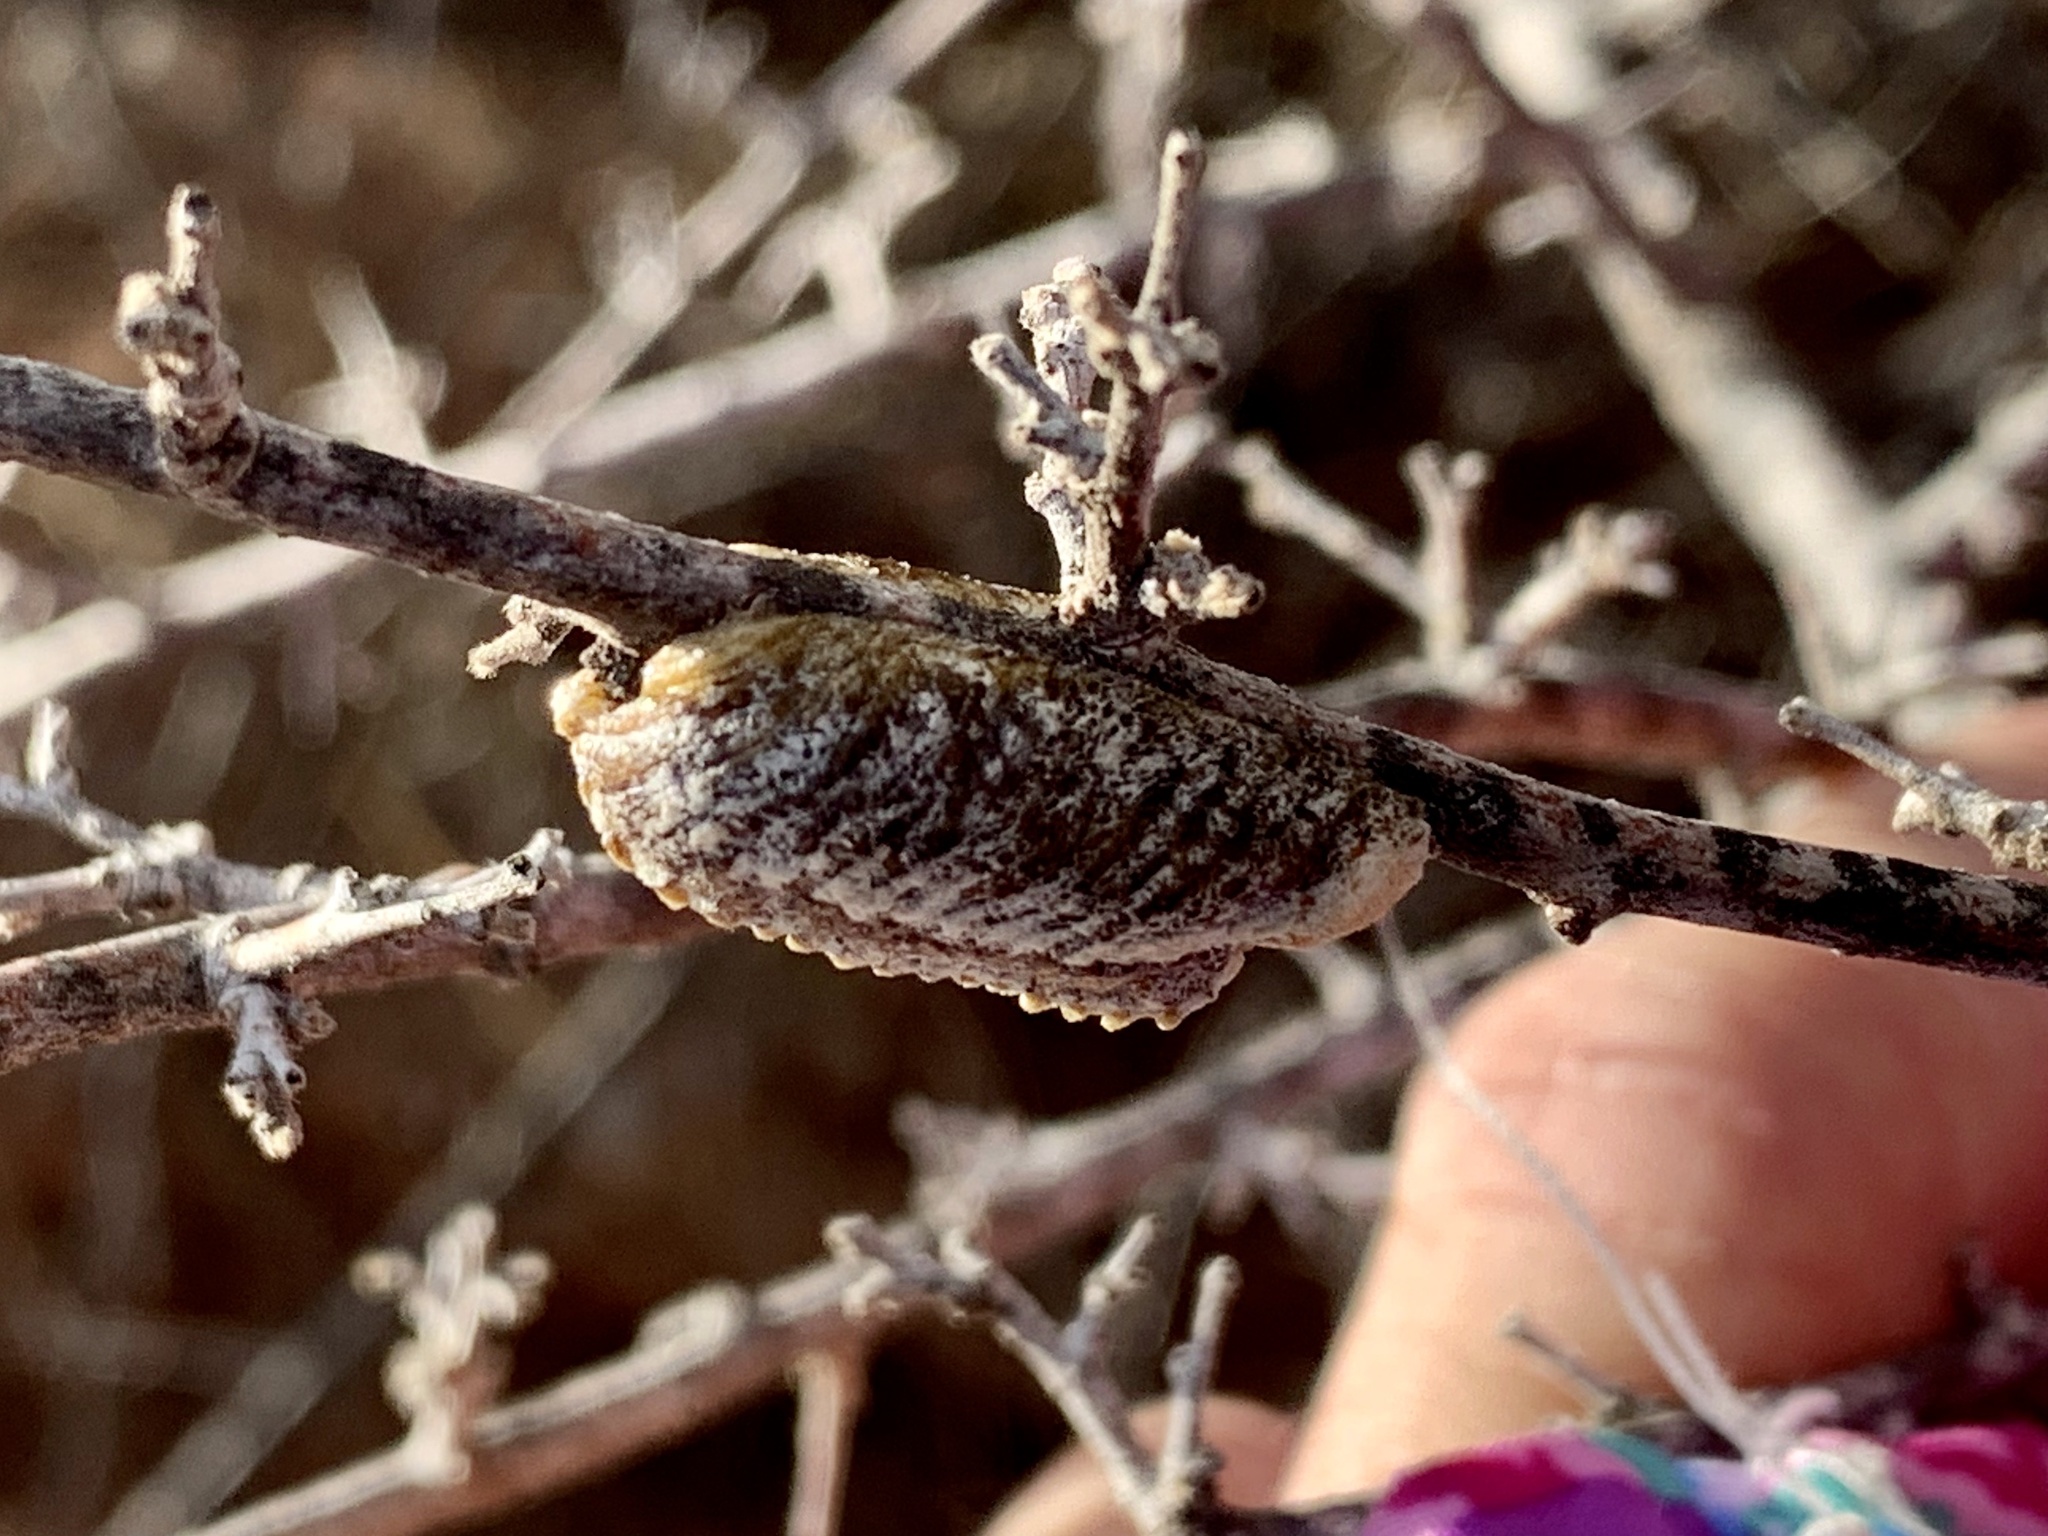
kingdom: Animalia
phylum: Arthropoda
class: Insecta
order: Mantodea
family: Mantidae
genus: Stagmomantis
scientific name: Stagmomantis limbata
